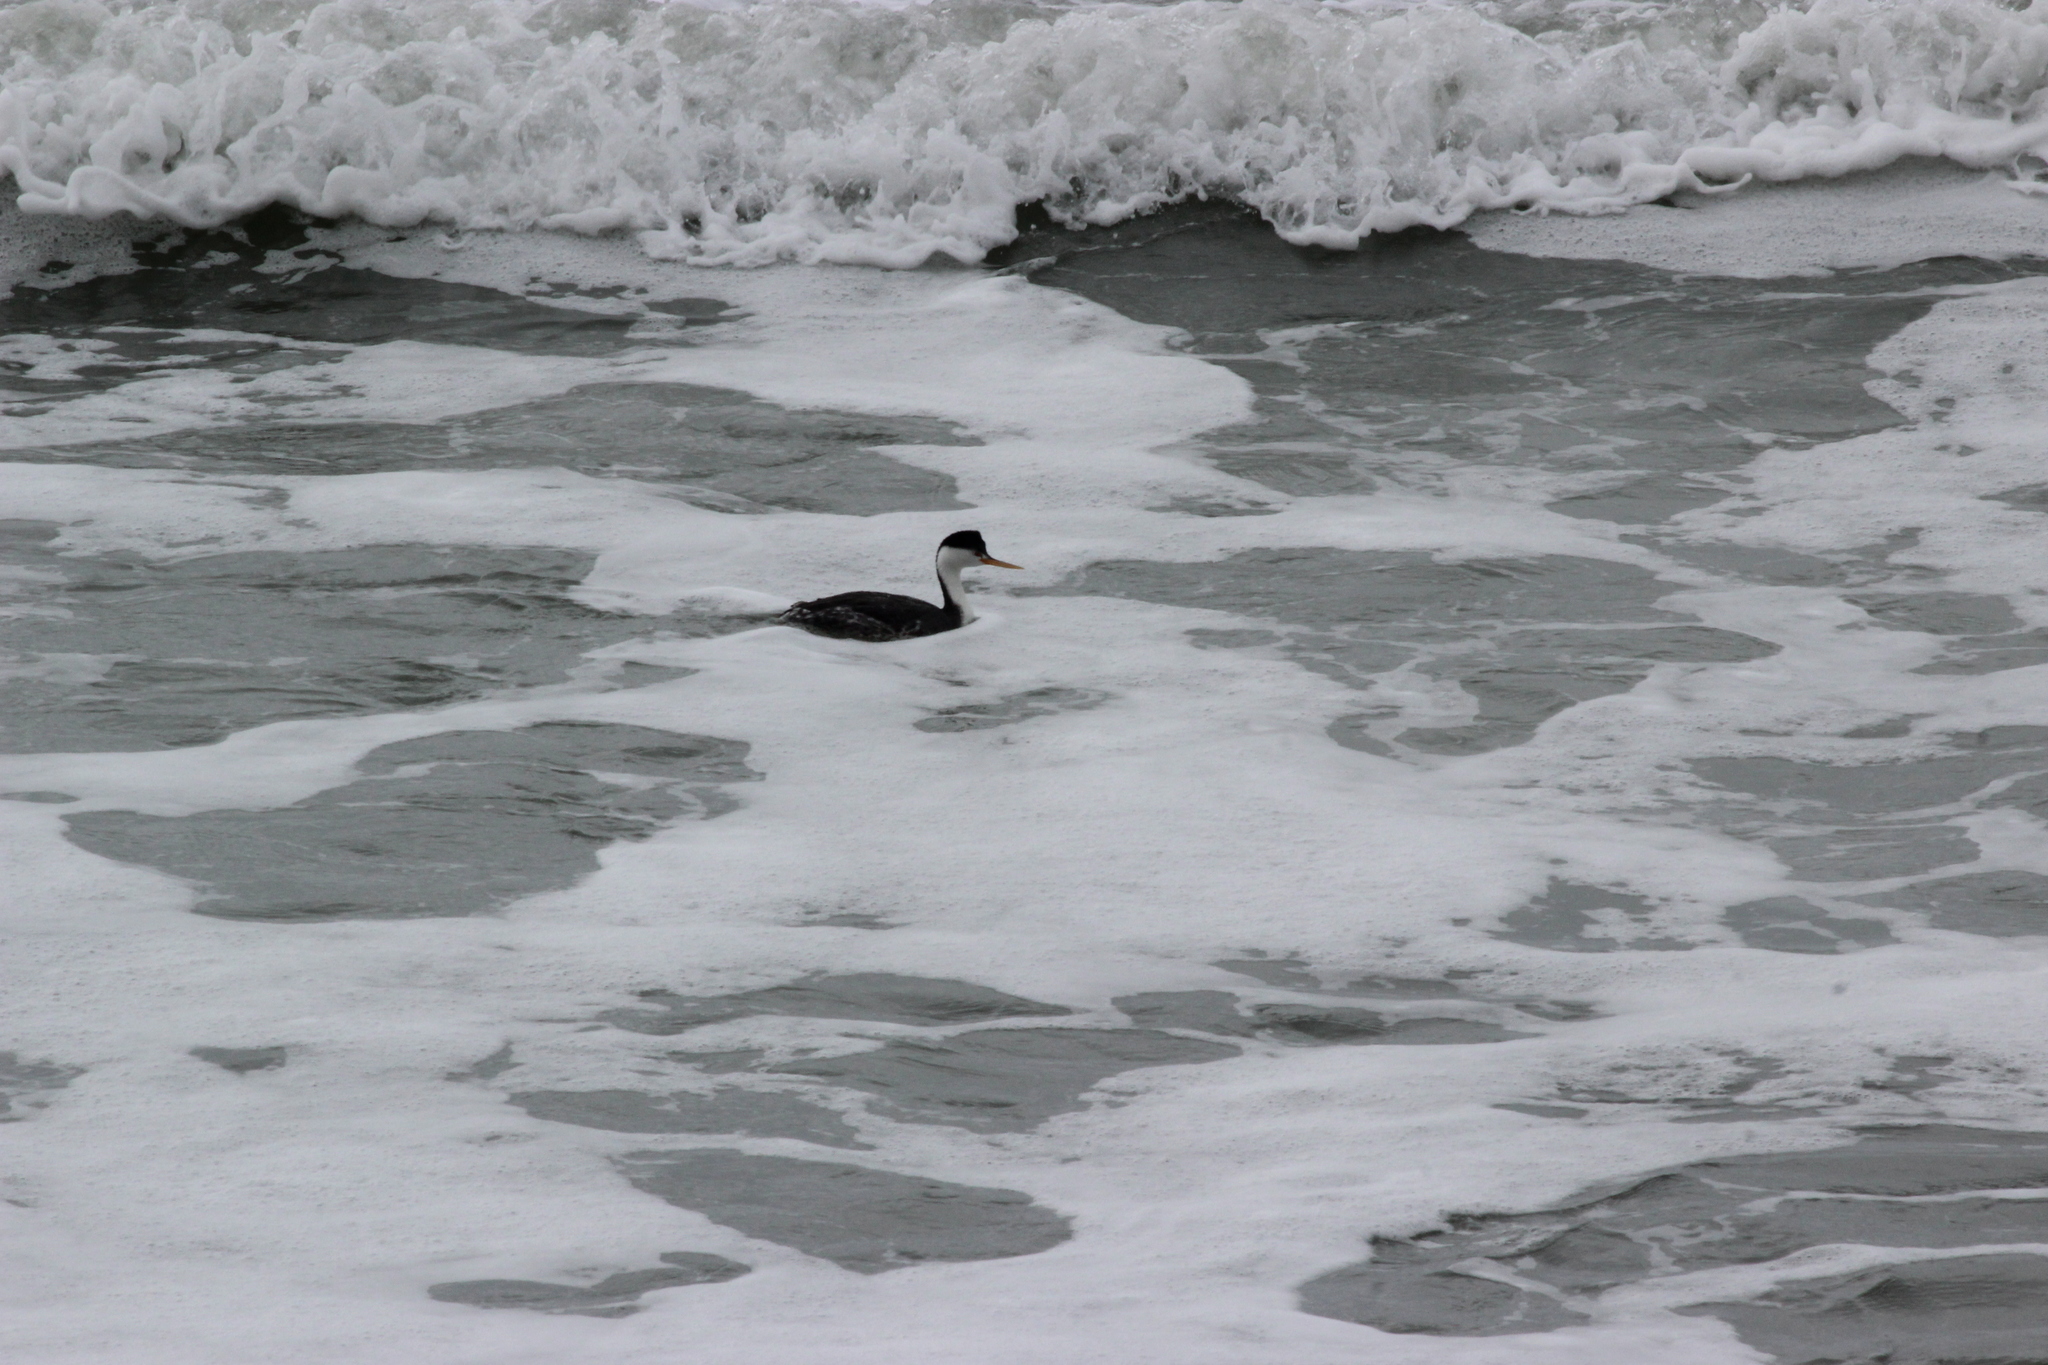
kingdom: Animalia
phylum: Chordata
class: Aves
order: Podicipediformes
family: Podicipedidae
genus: Aechmophorus
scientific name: Aechmophorus clarkii
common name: Clark's grebe
